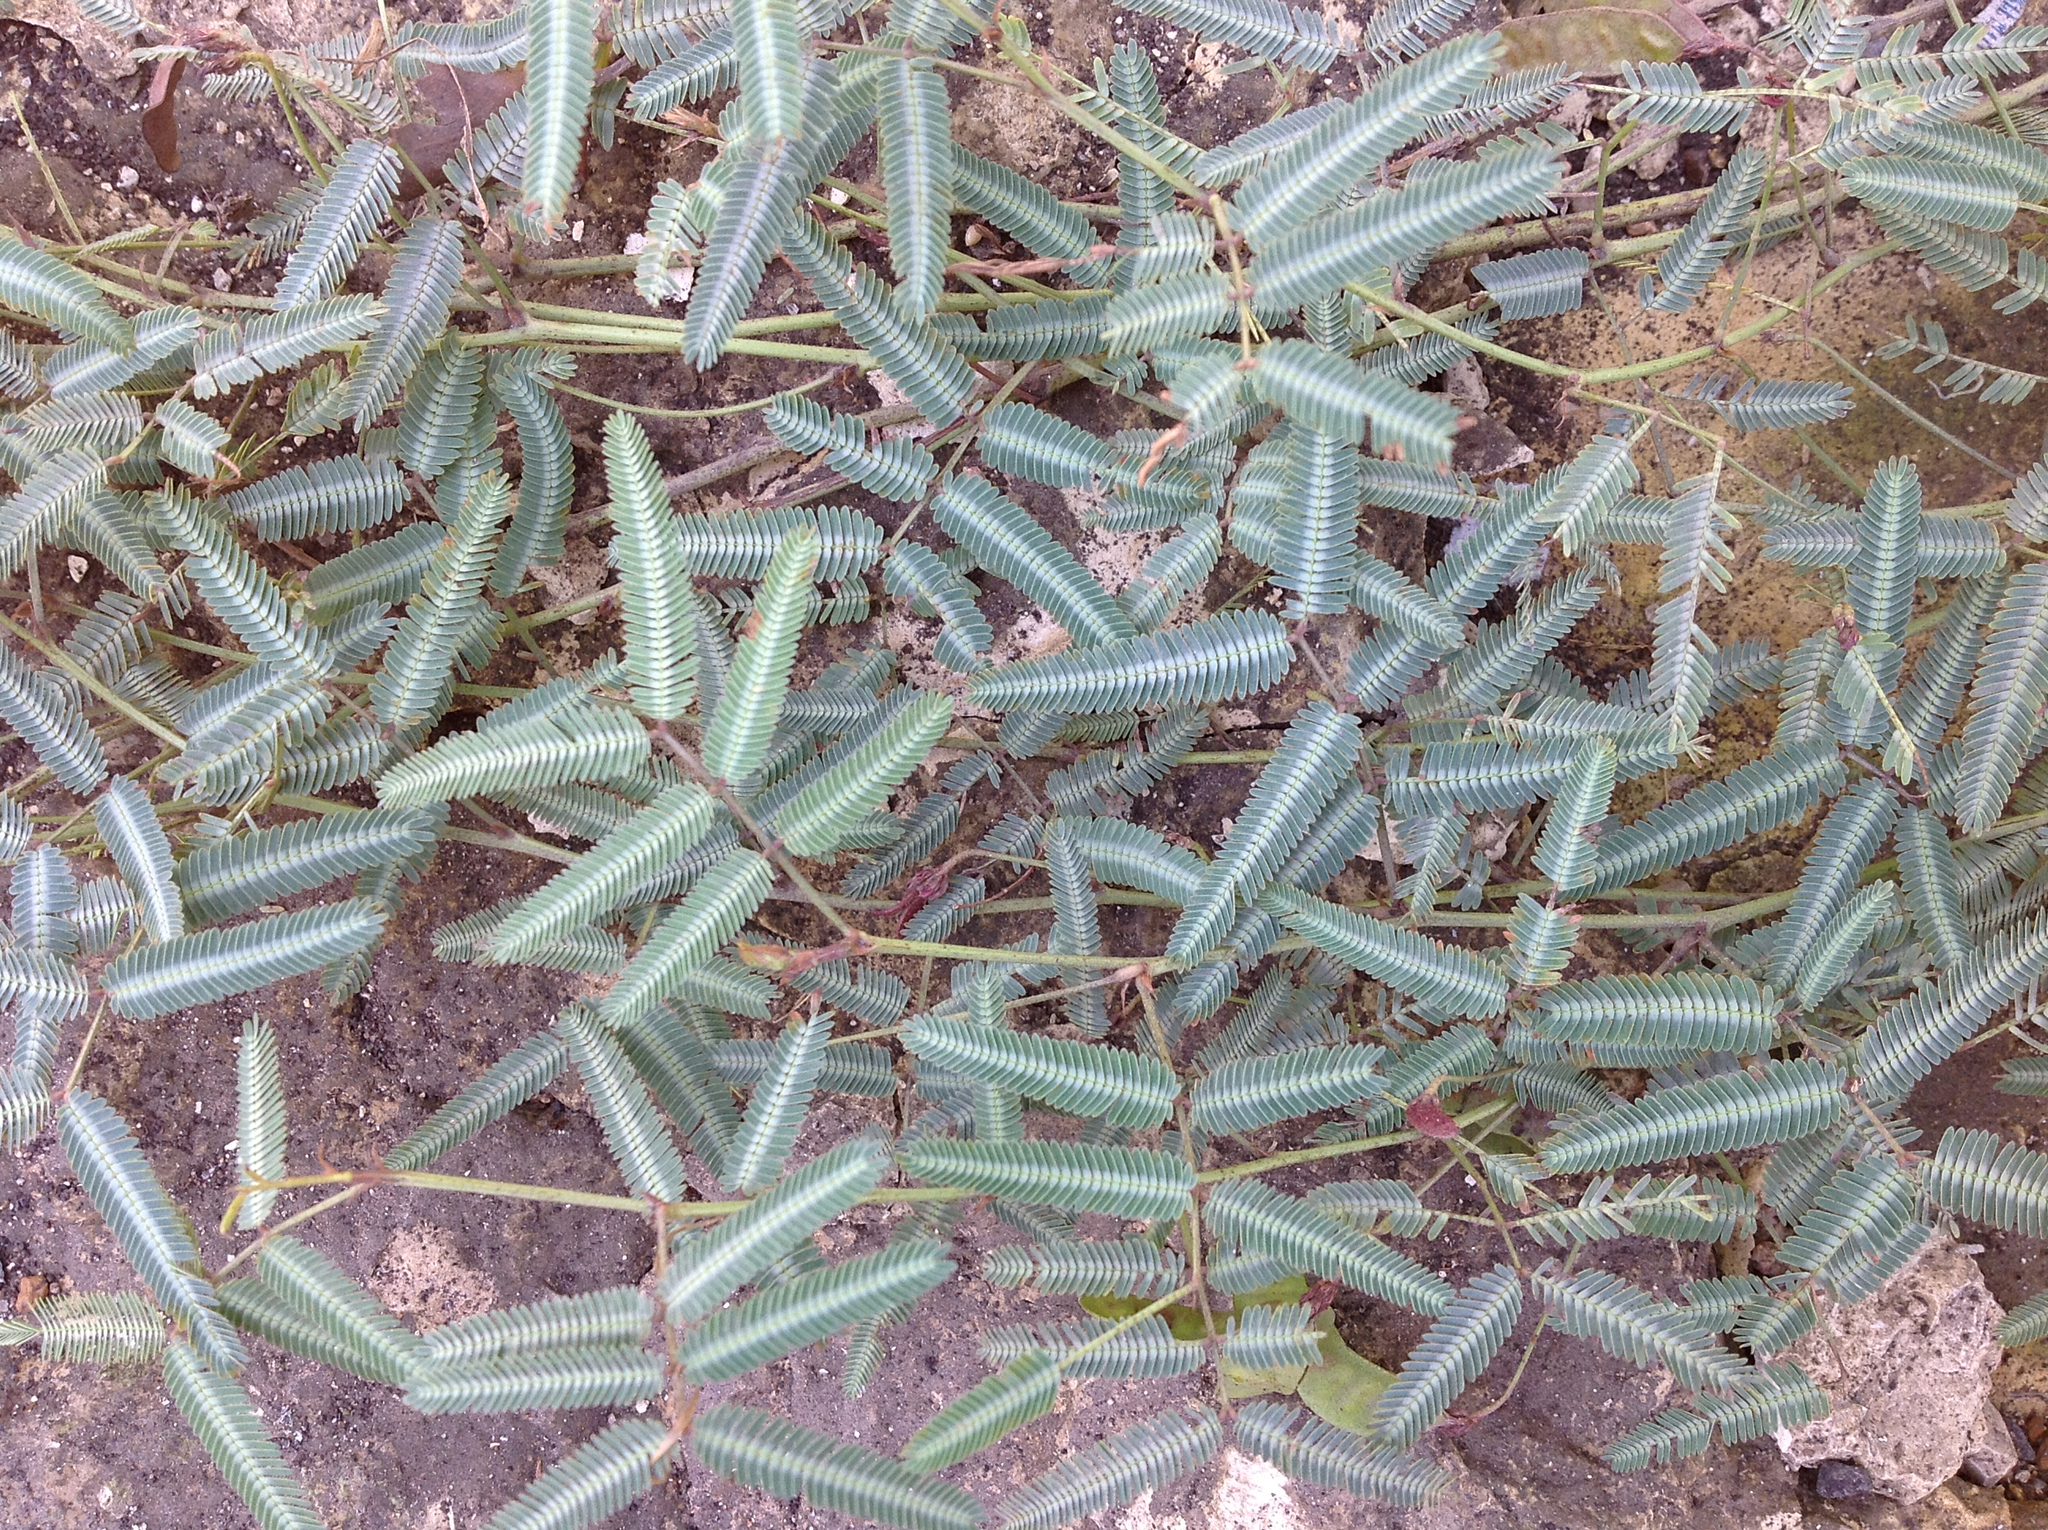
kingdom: Plantae
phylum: Tracheophyta
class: Magnoliopsida
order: Fabales
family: Fabaceae
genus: Neptunia
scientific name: Neptunia pubescens
